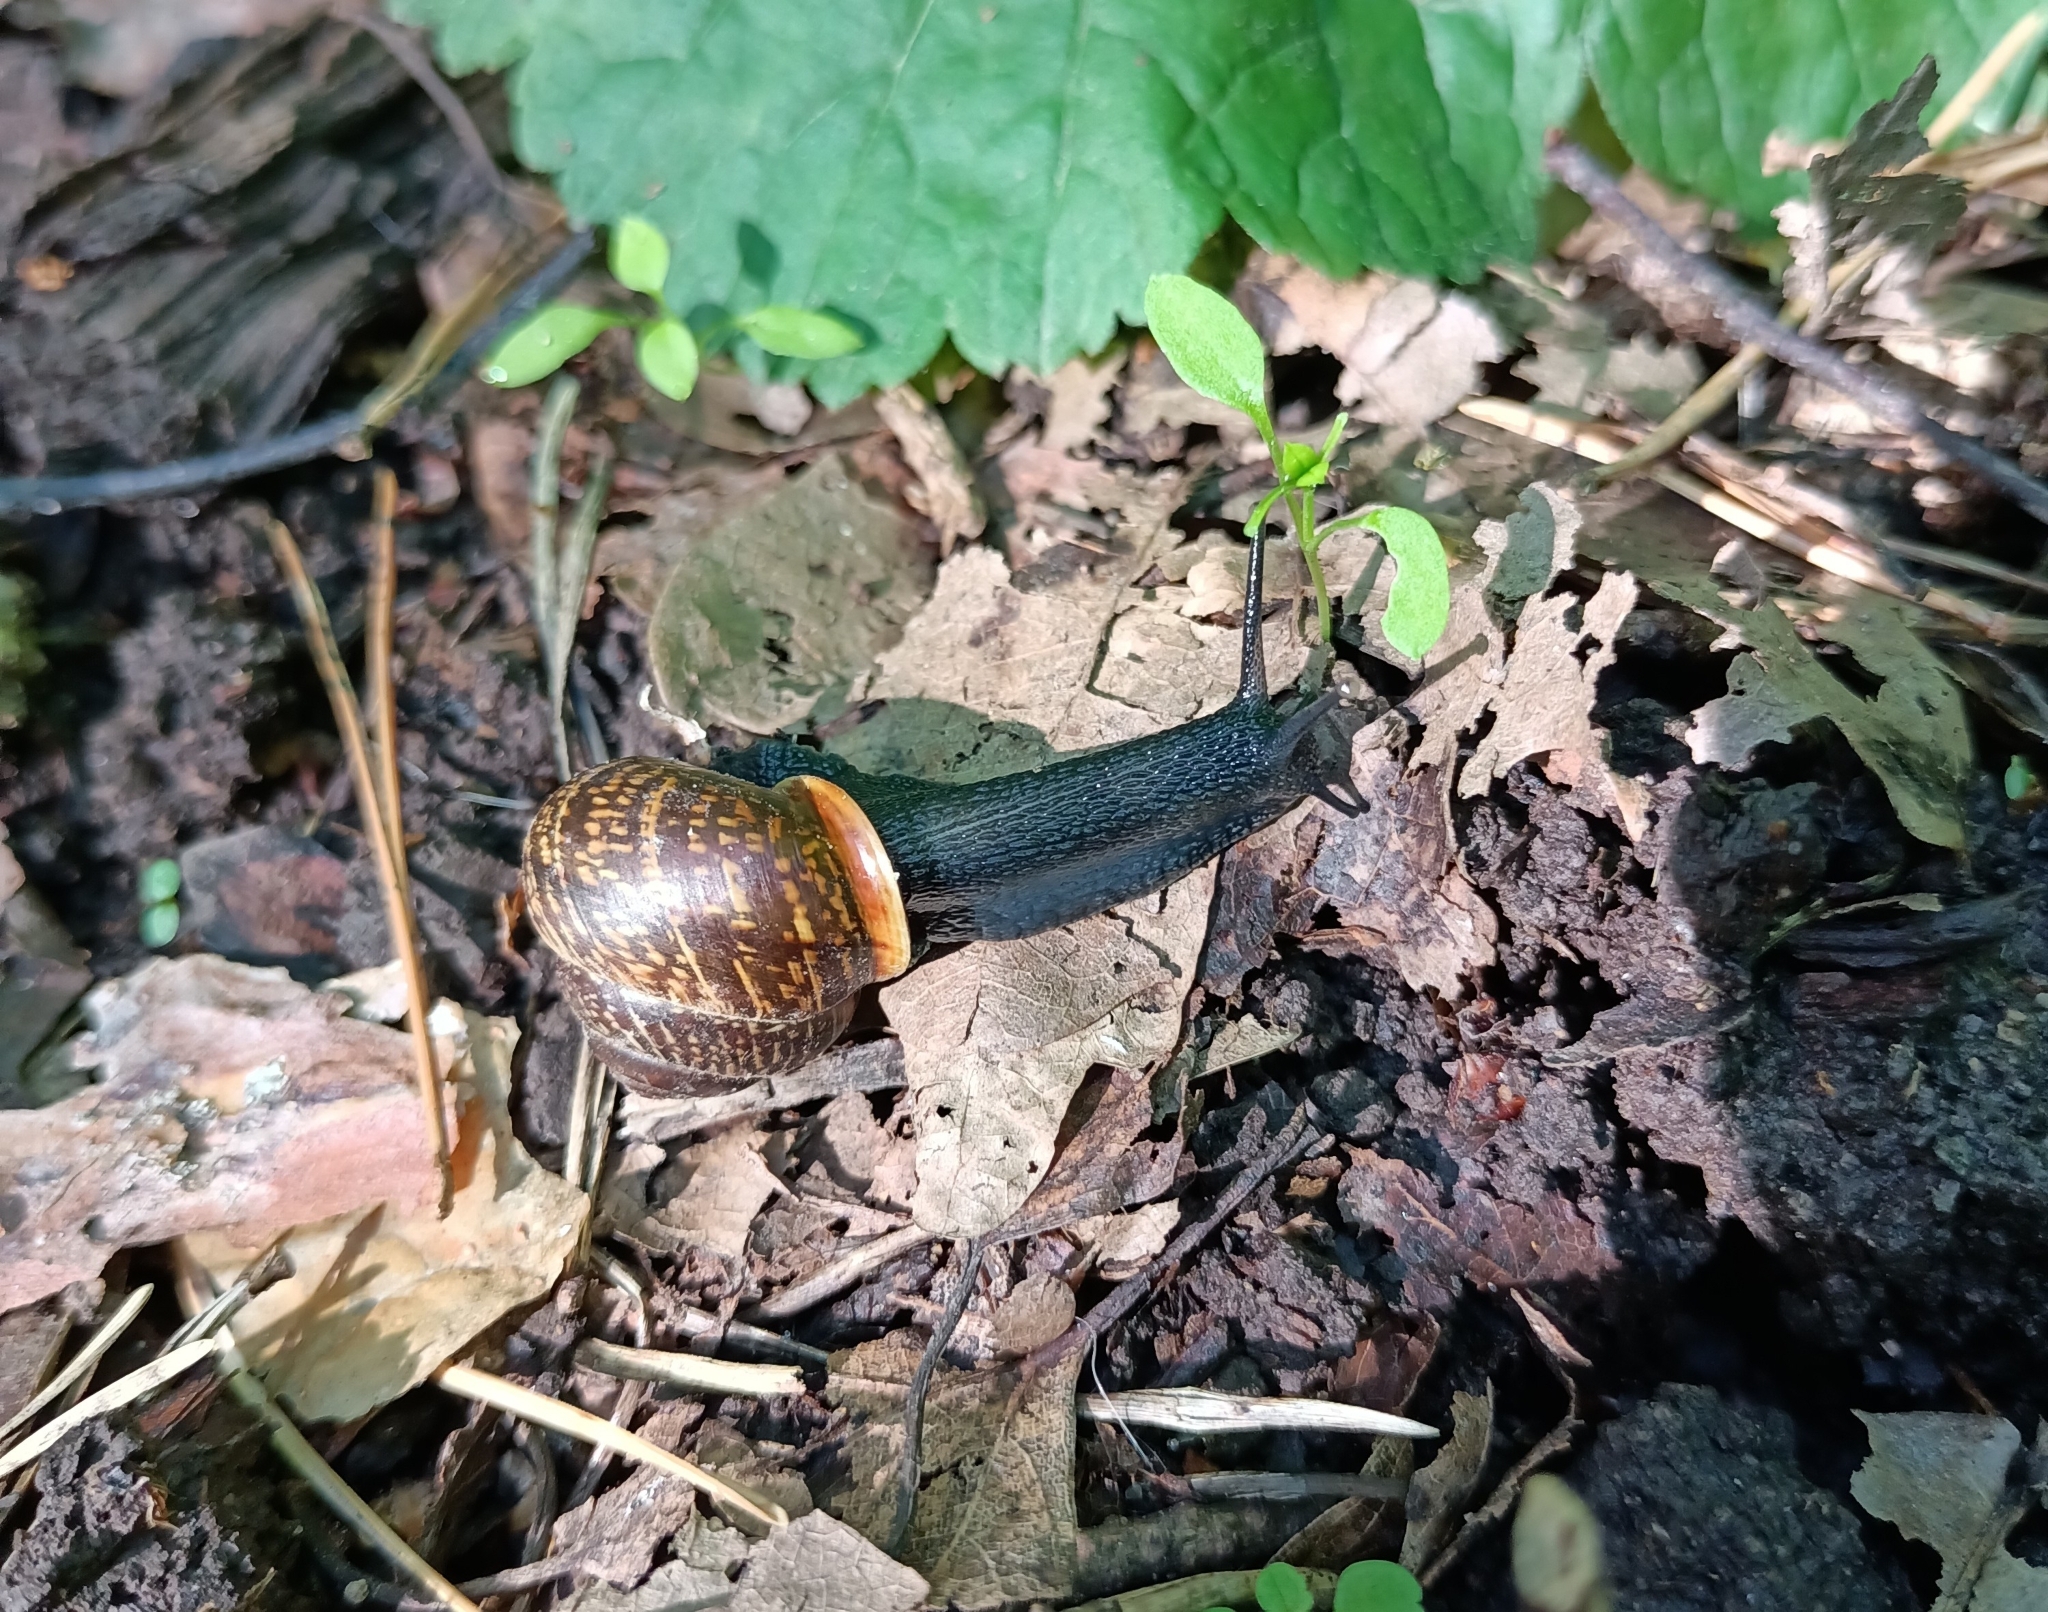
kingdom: Animalia
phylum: Mollusca
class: Gastropoda
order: Stylommatophora
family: Helicidae
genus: Arianta
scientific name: Arianta arbustorum
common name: Copse snail
